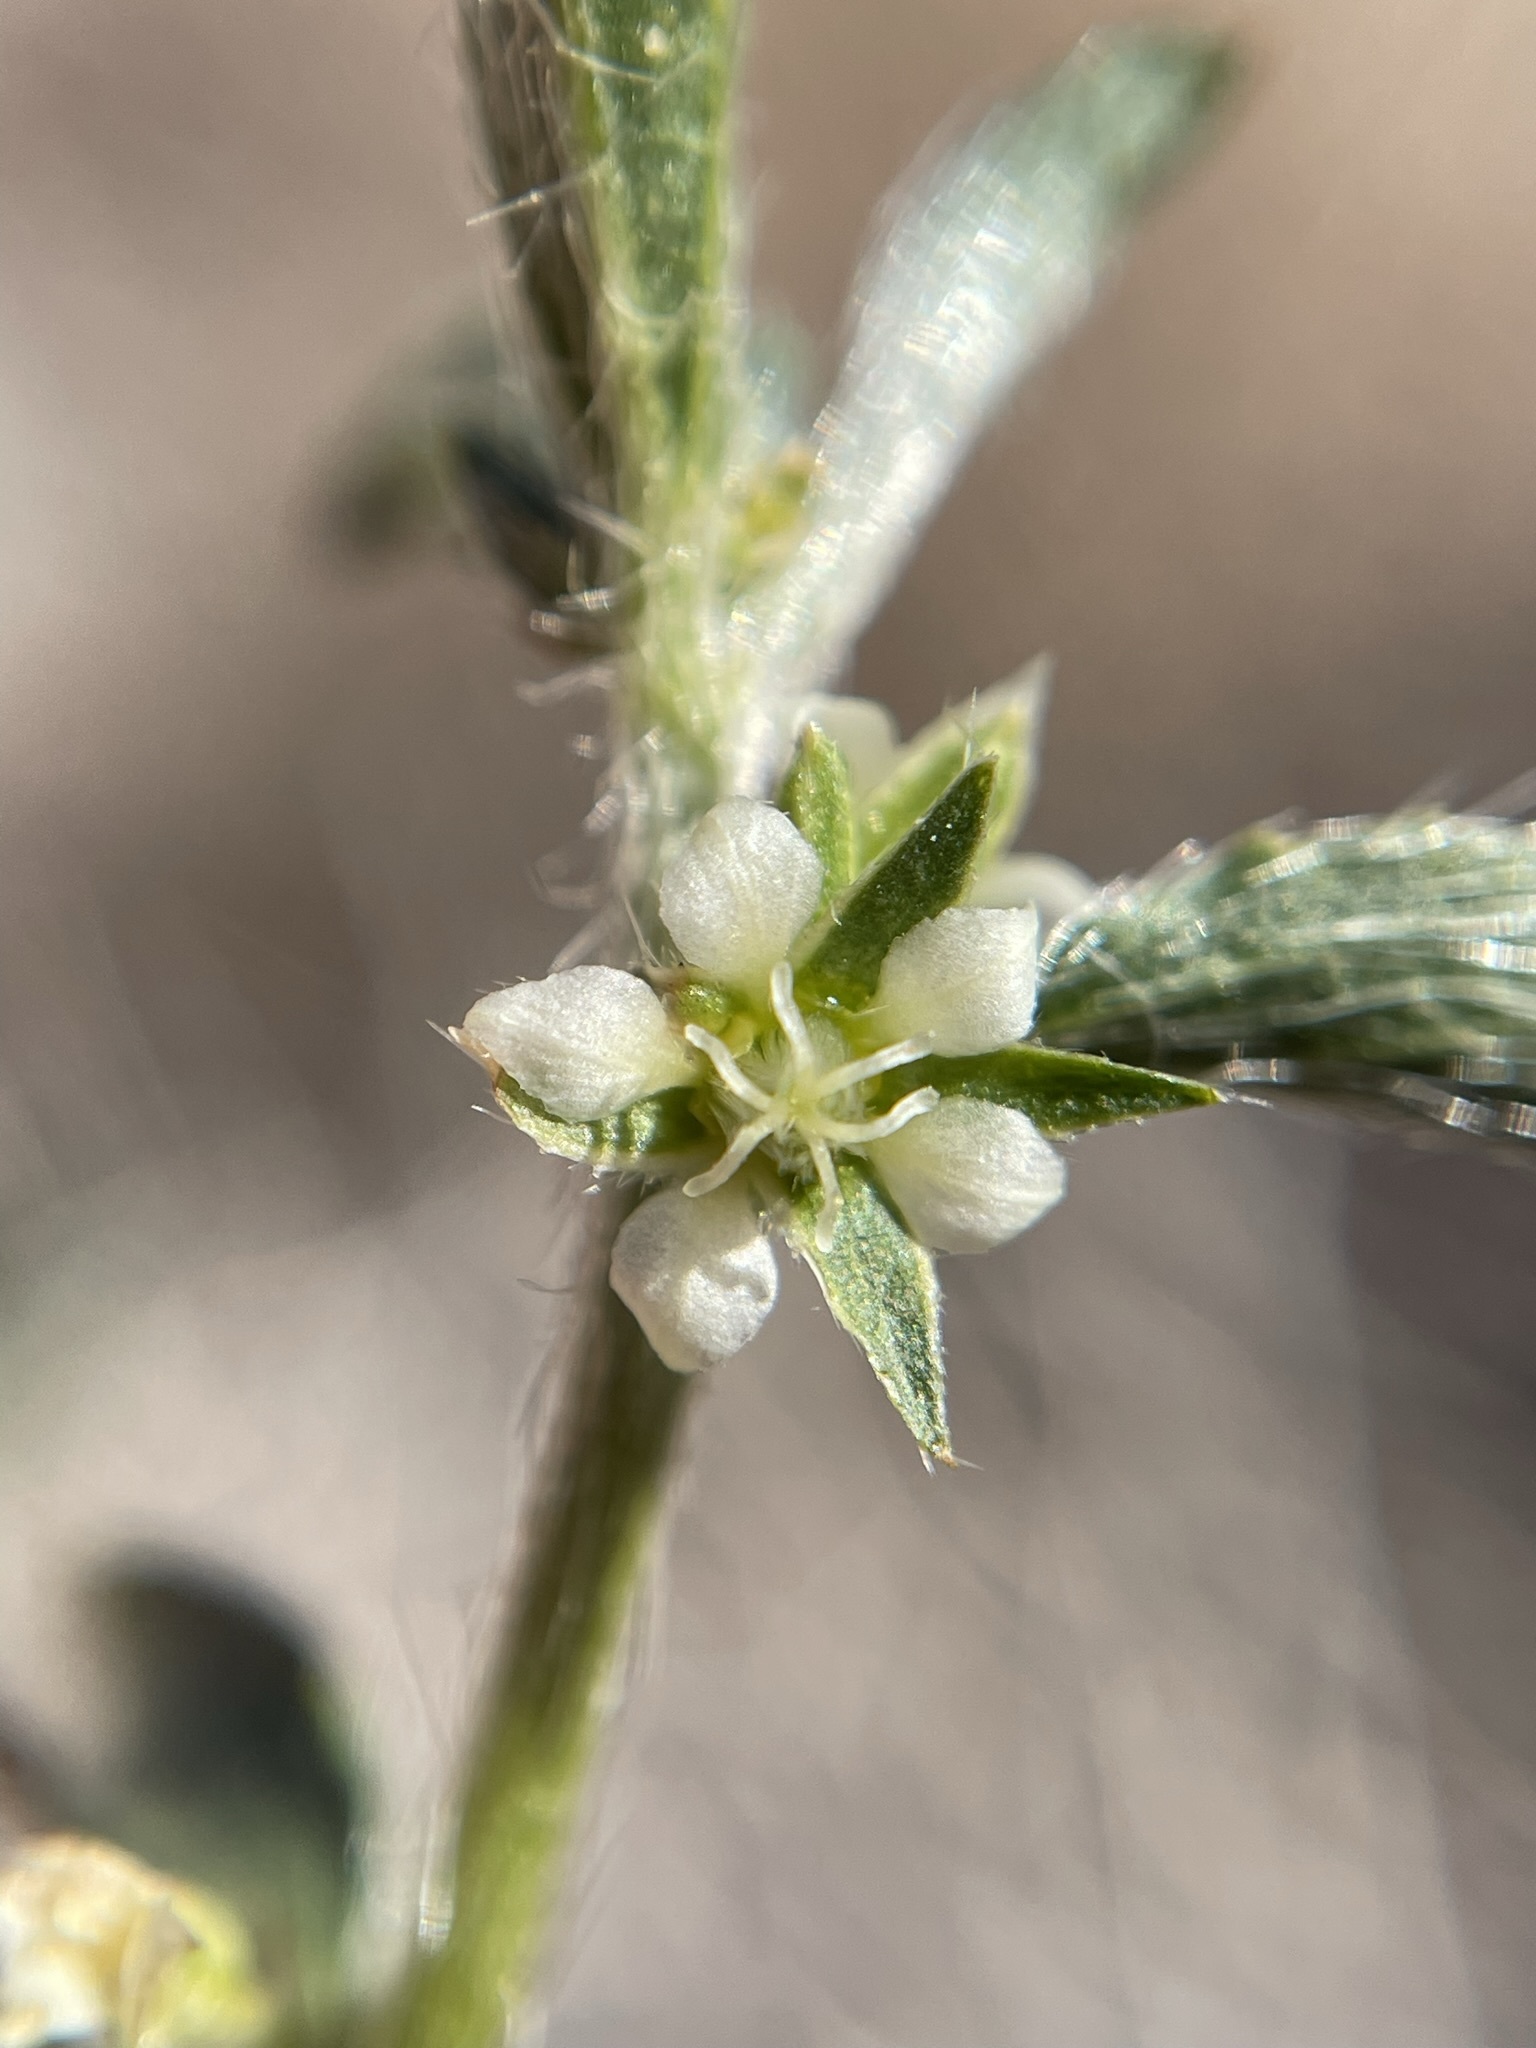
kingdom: Plantae
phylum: Tracheophyta
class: Magnoliopsida
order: Malpighiales
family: Euphorbiaceae
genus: Ditaxis
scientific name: Ditaxis serrata
